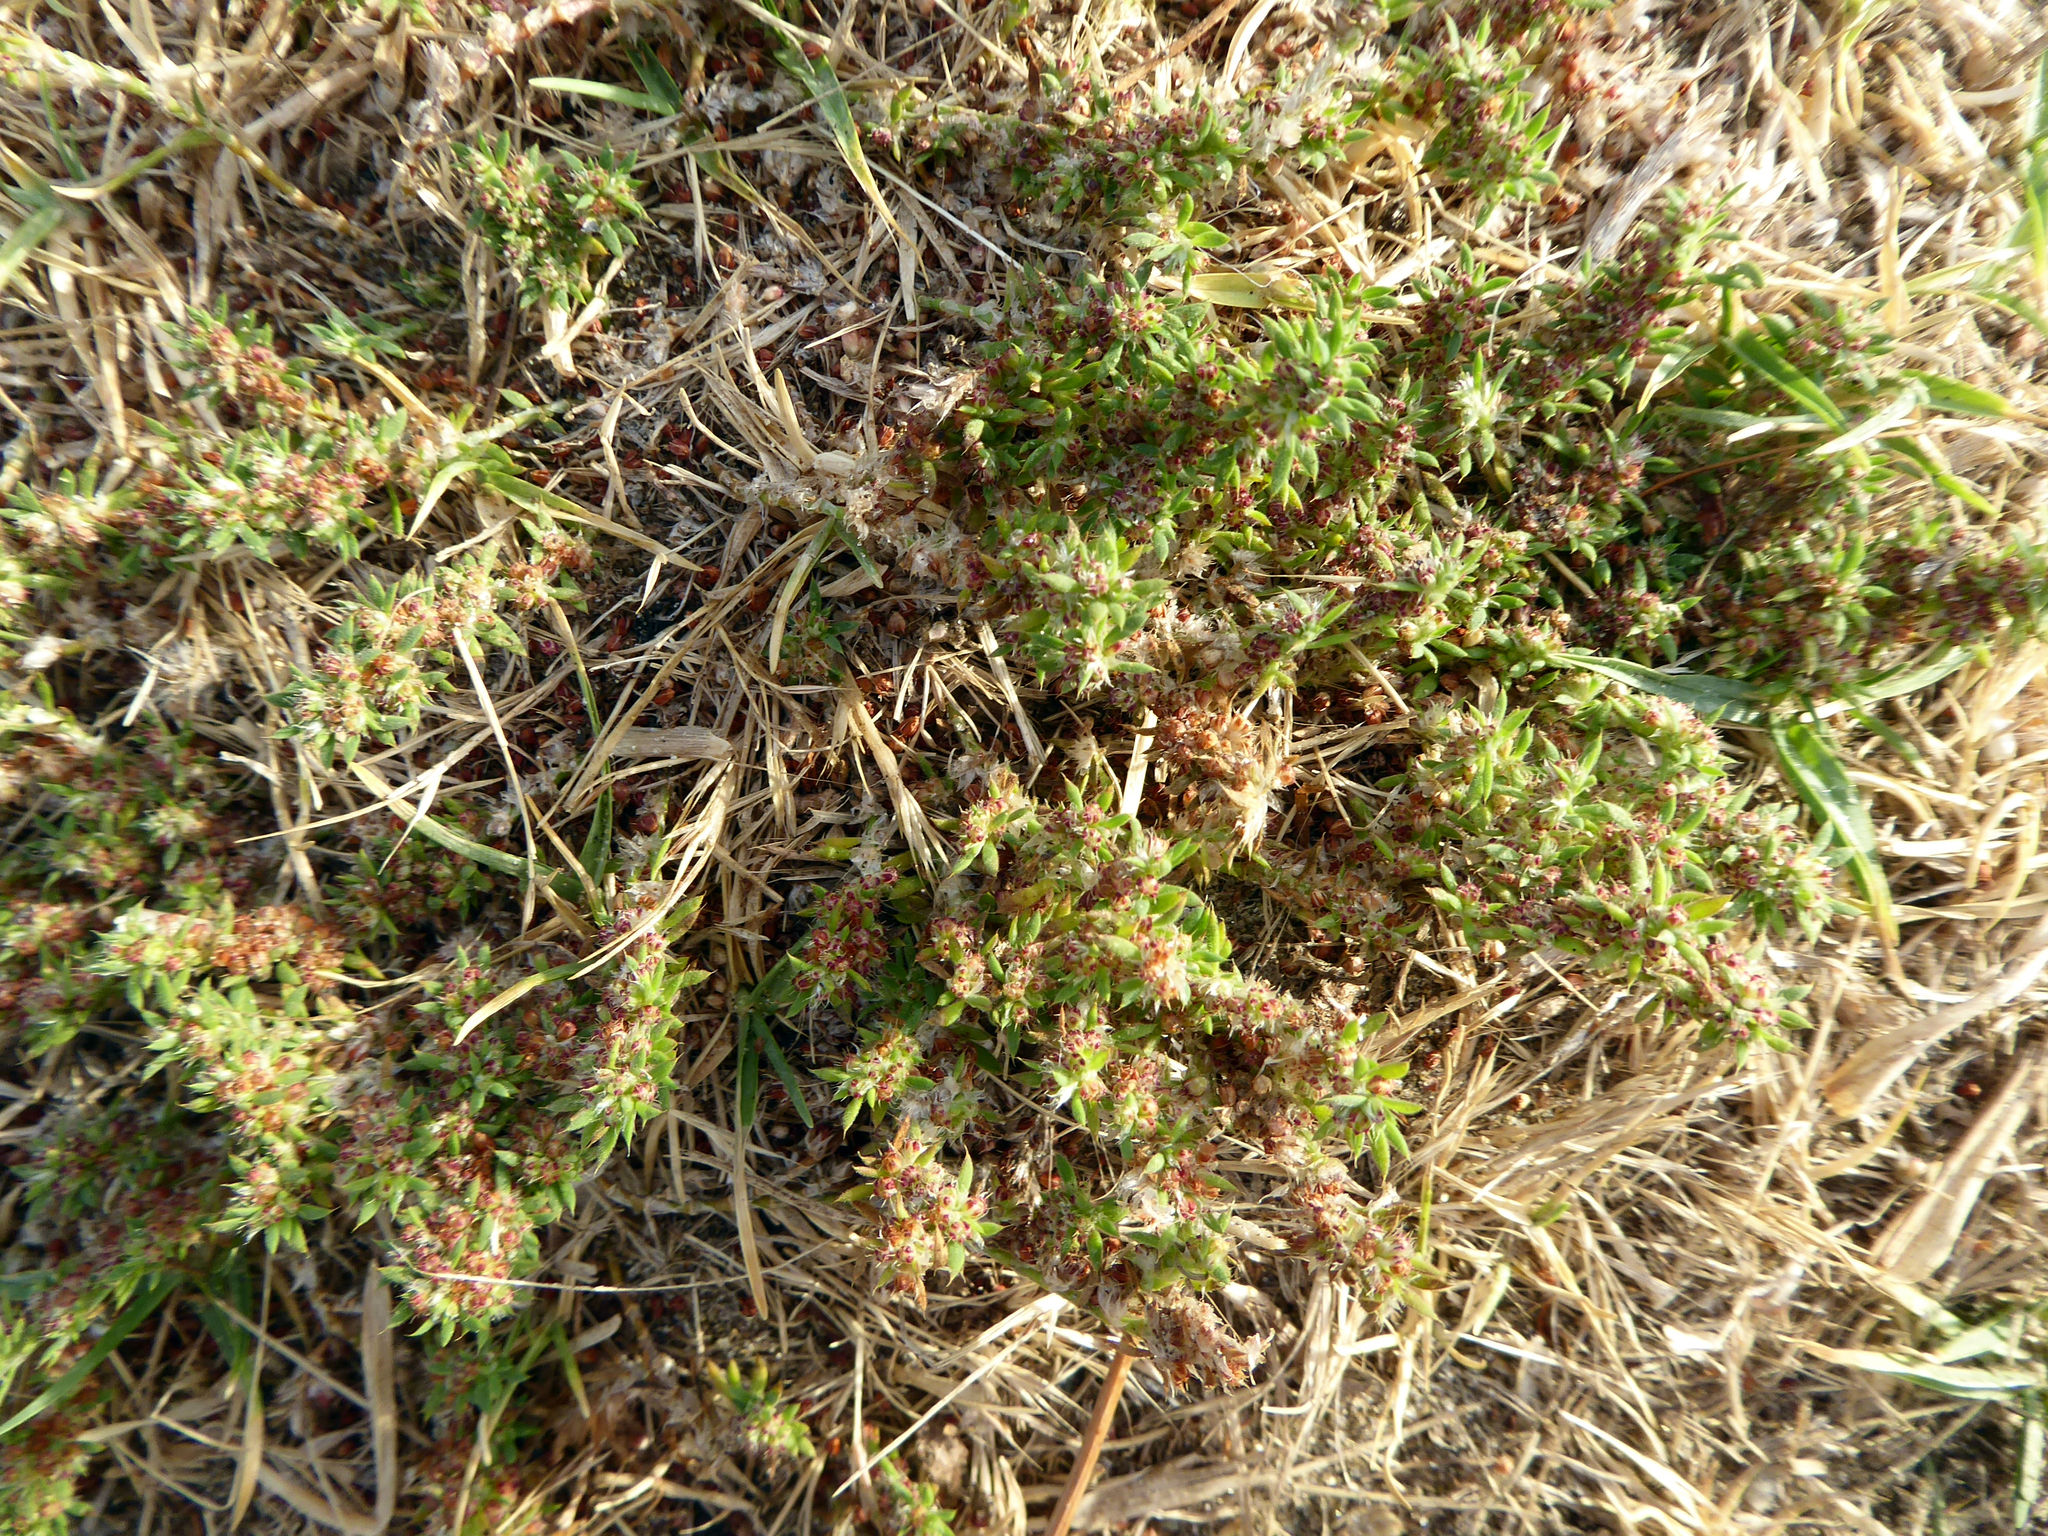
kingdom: Plantae
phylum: Tracheophyta
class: Magnoliopsida
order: Caryophyllales
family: Caryophyllaceae
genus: Paronychia
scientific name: Paronychia brasiliana
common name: Brazilian whitlow
